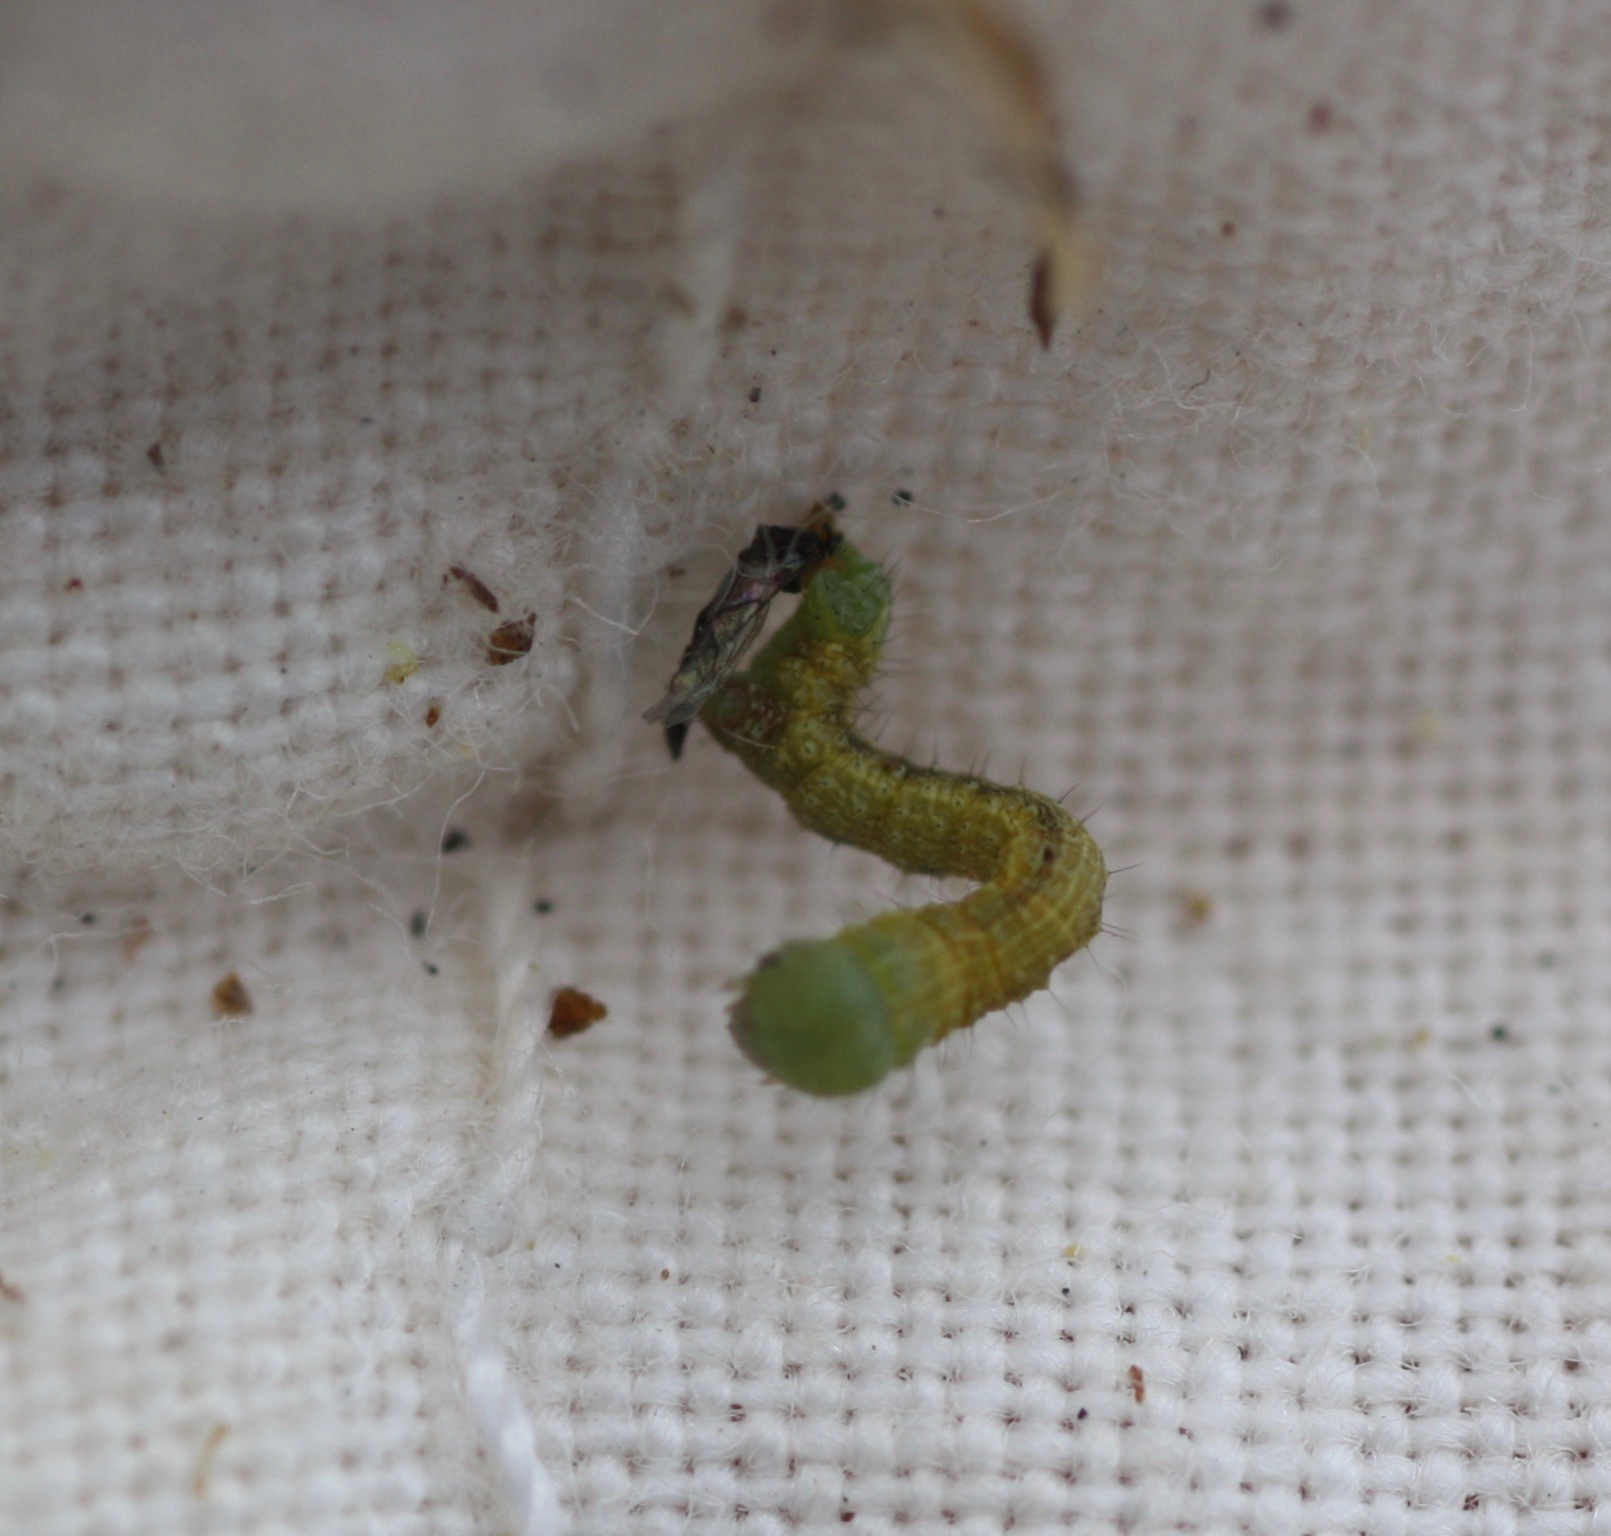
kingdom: Animalia
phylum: Arthropoda
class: Insecta
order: Lepidoptera
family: Geometridae
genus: Digrammia
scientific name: Digrammia colorata
